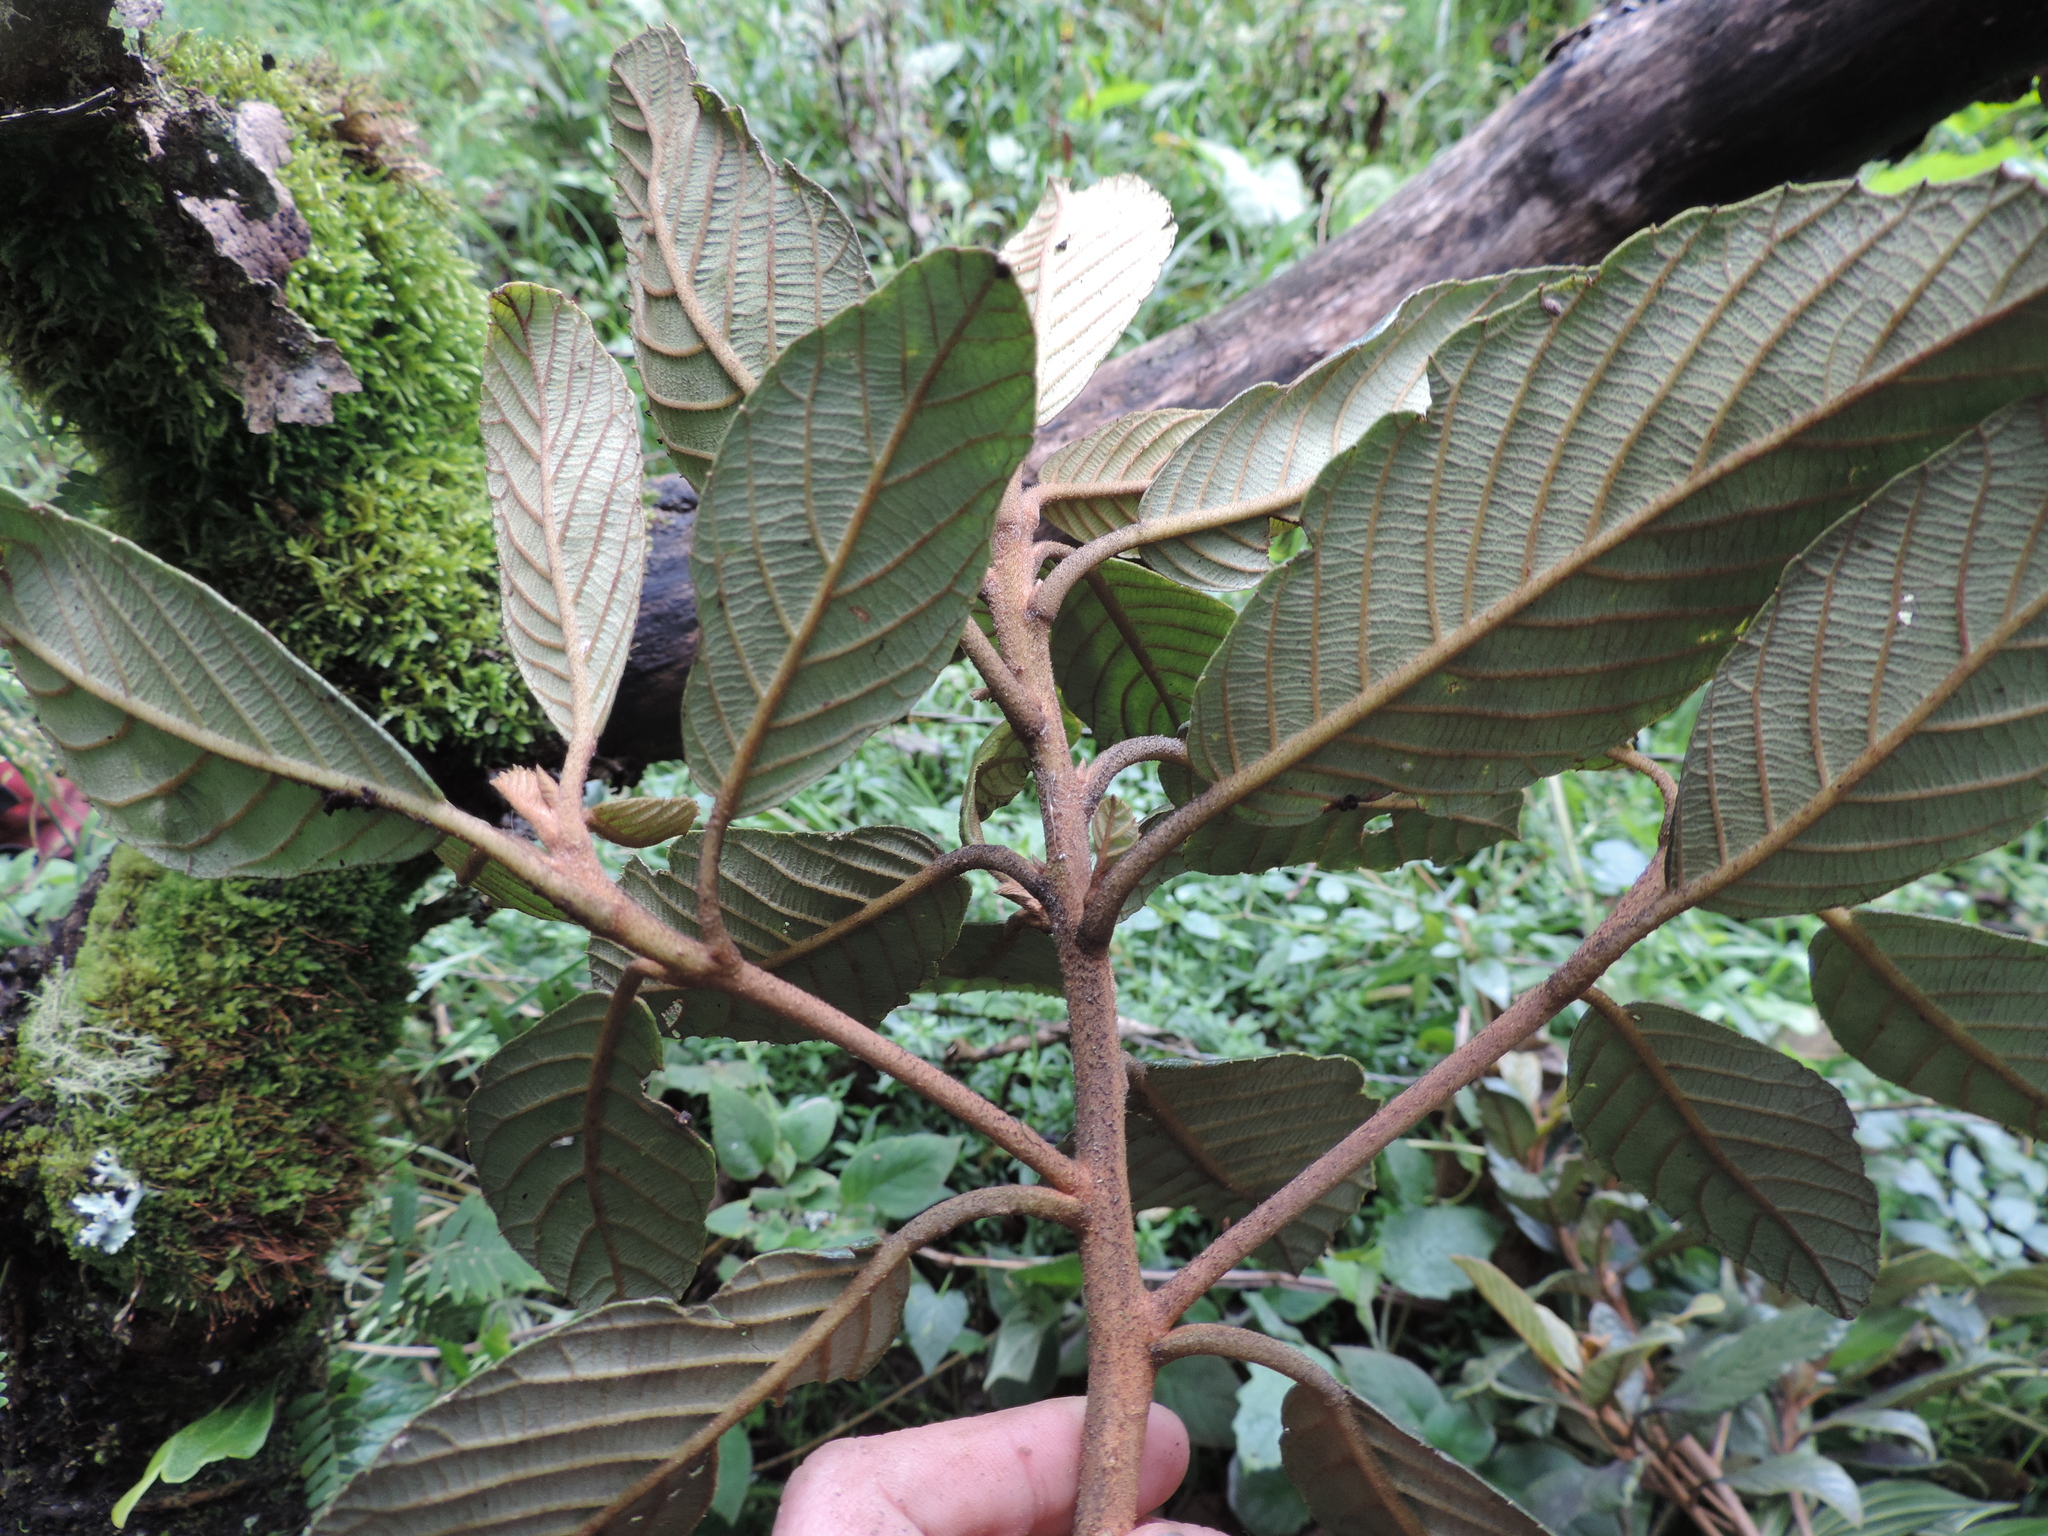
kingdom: Plantae
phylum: Tracheophyta
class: Magnoliopsida
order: Ericales
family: Clethraceae
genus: Clethra
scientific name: Clethra rugosa
